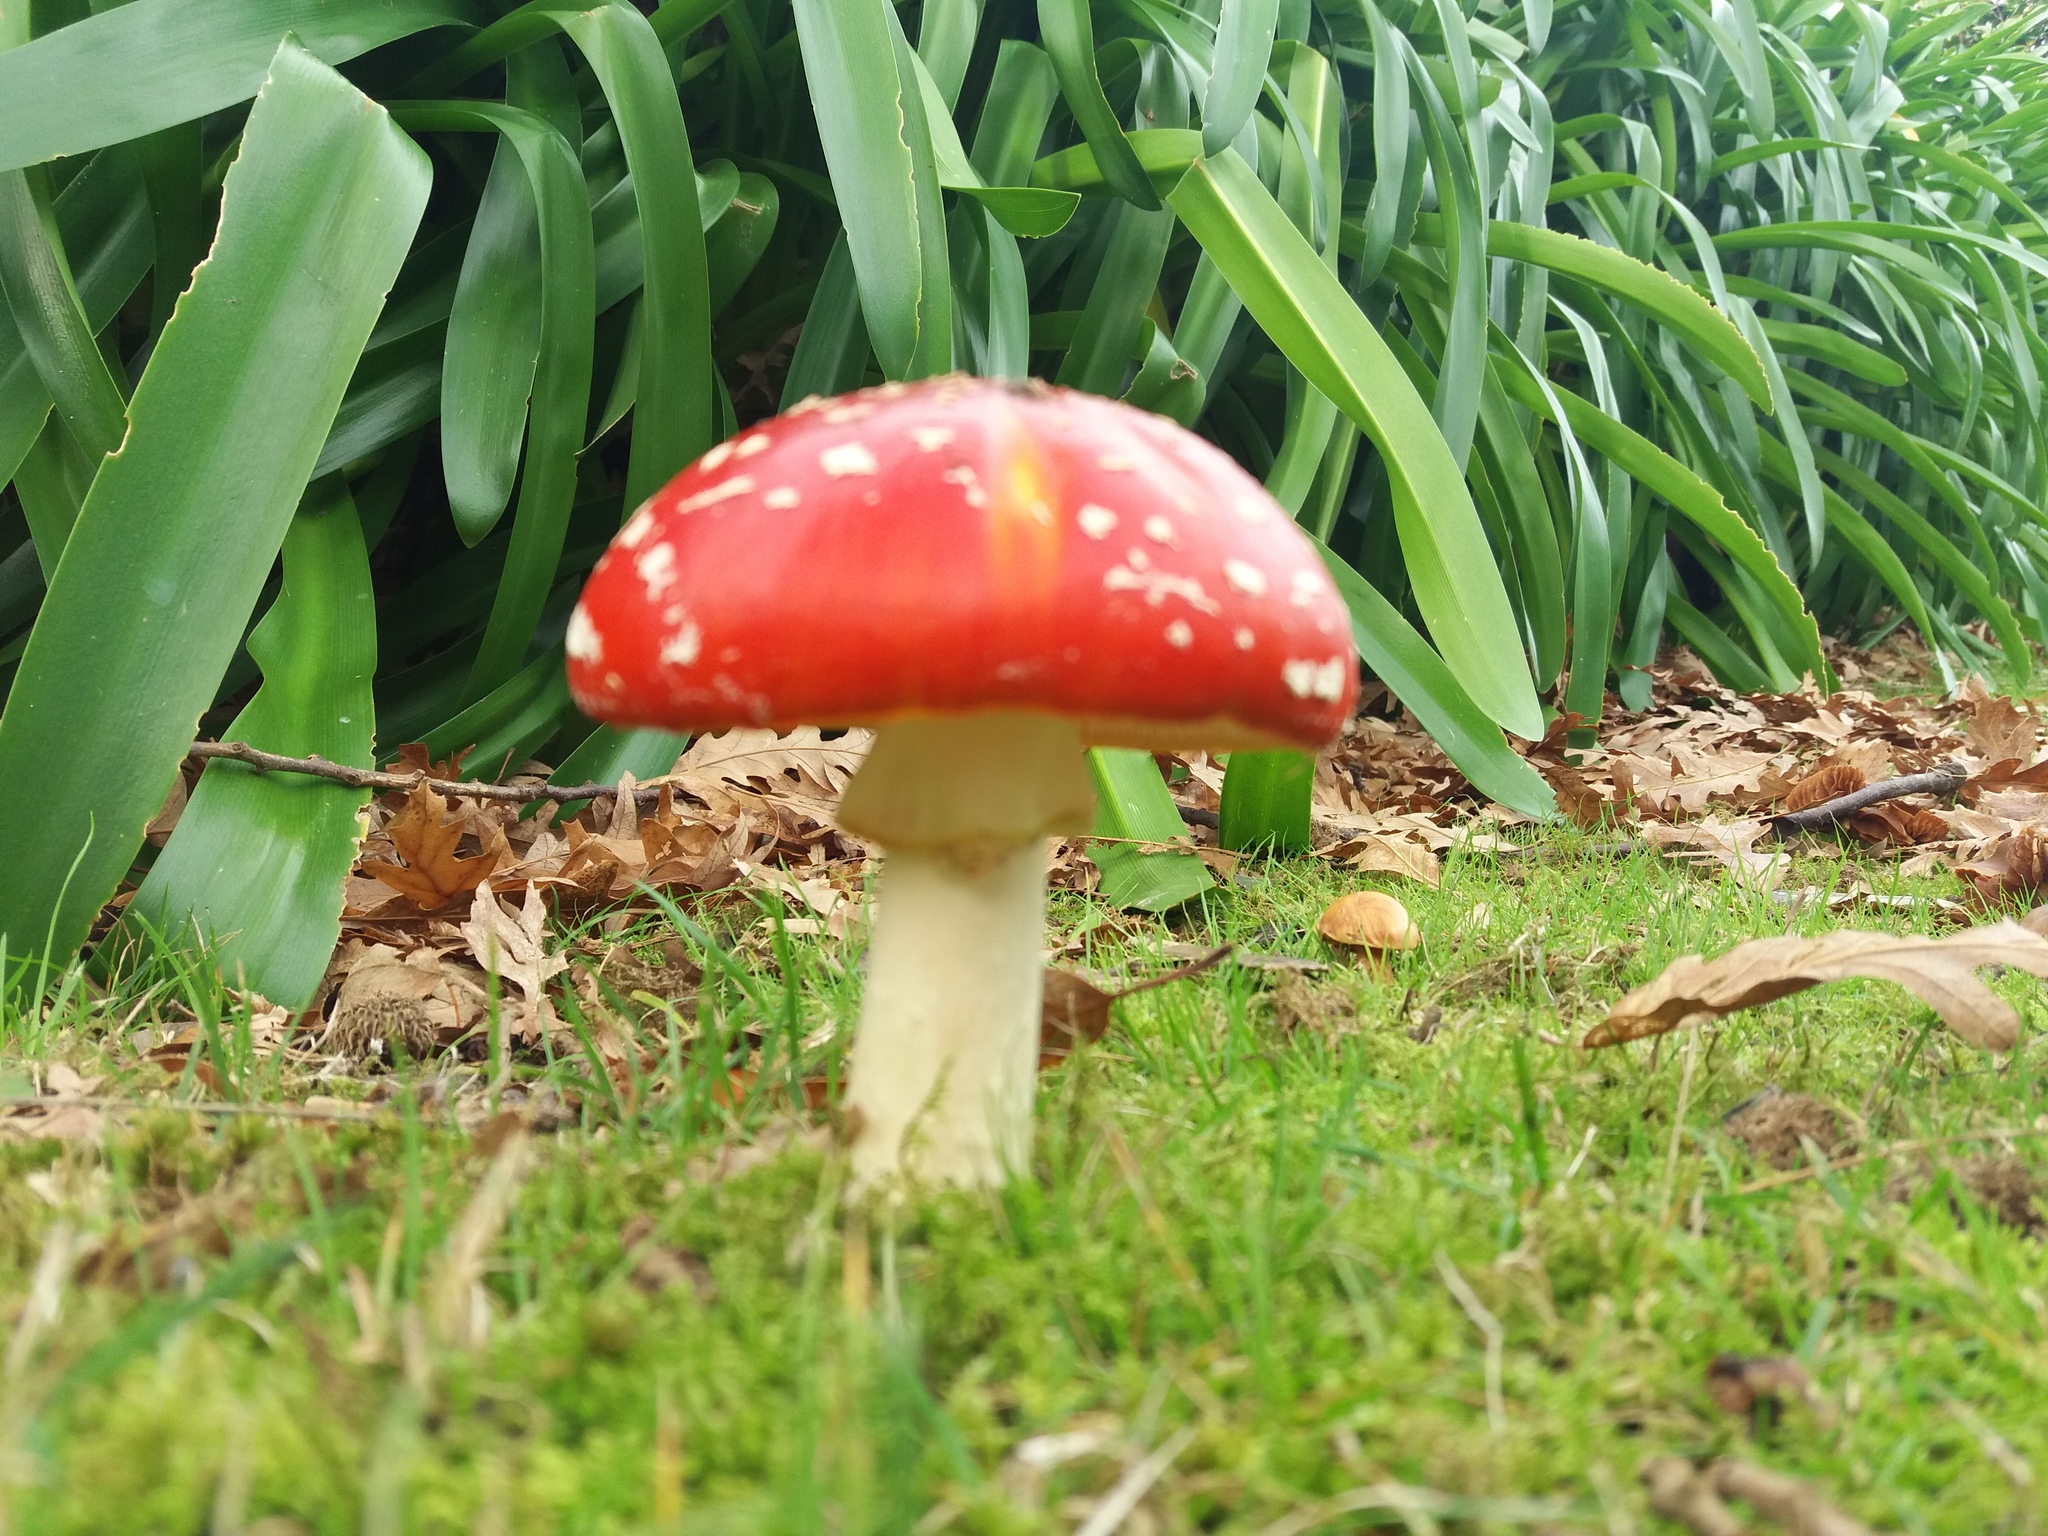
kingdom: Fungi
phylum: Basidiomycota
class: Agaricomycetes
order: Agaricales
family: Amanitaceae
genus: Amanita
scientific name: Amanita muscaria
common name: Fly agaric
